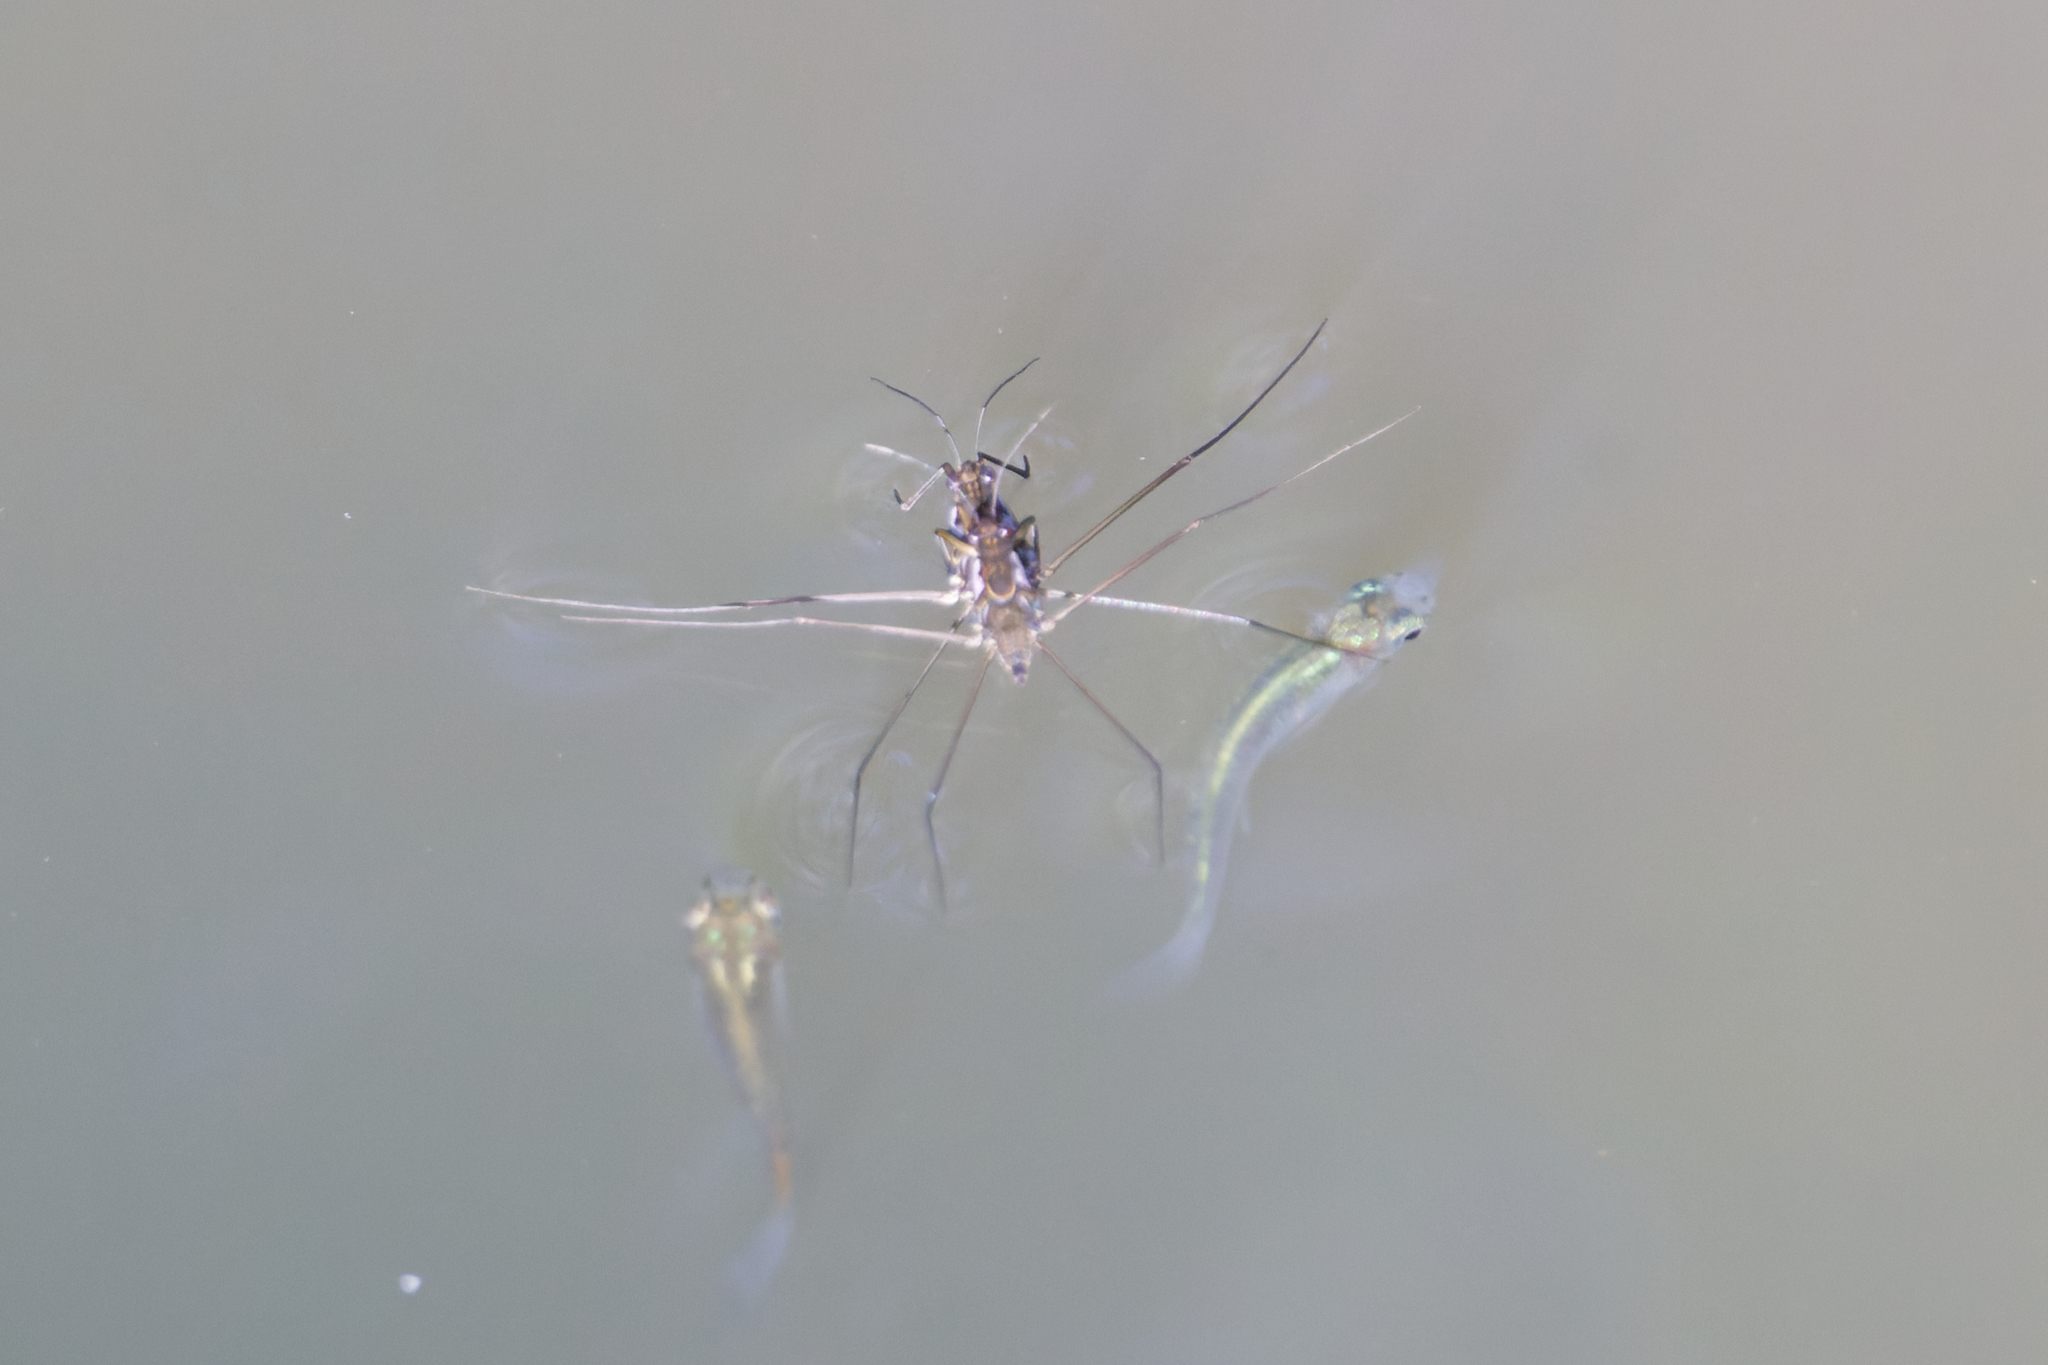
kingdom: Animalia
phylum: Arthropoda
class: Insecta
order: Hemiptera
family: Gerridae
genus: Tenagogerris
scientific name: Tenagogerris euphrosyne
